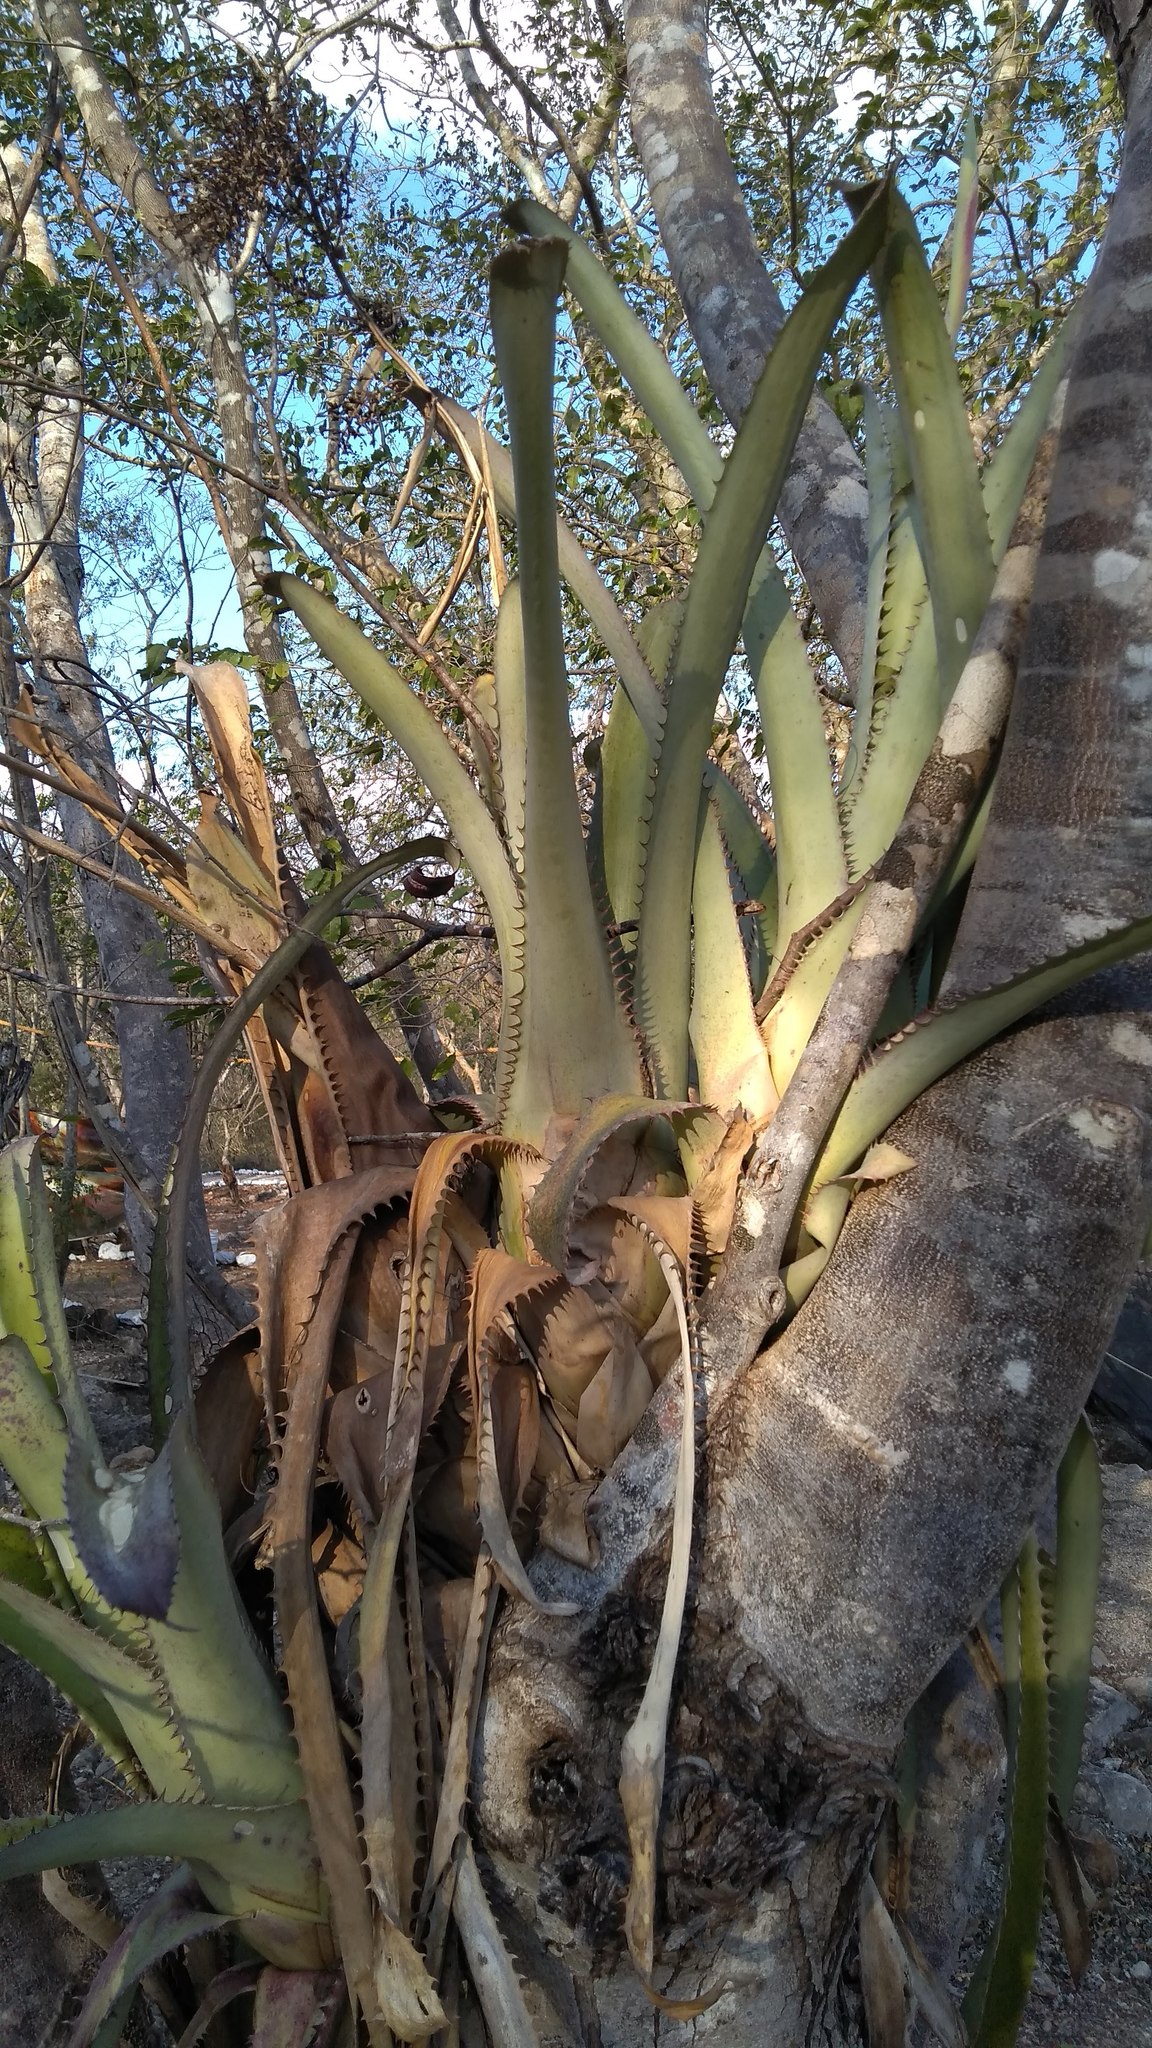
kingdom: Plantae
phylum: Tracheophyta
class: Liliopsida
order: Poales
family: Bromeliaceae
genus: Aechmea
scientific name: Aechmea bracteata
